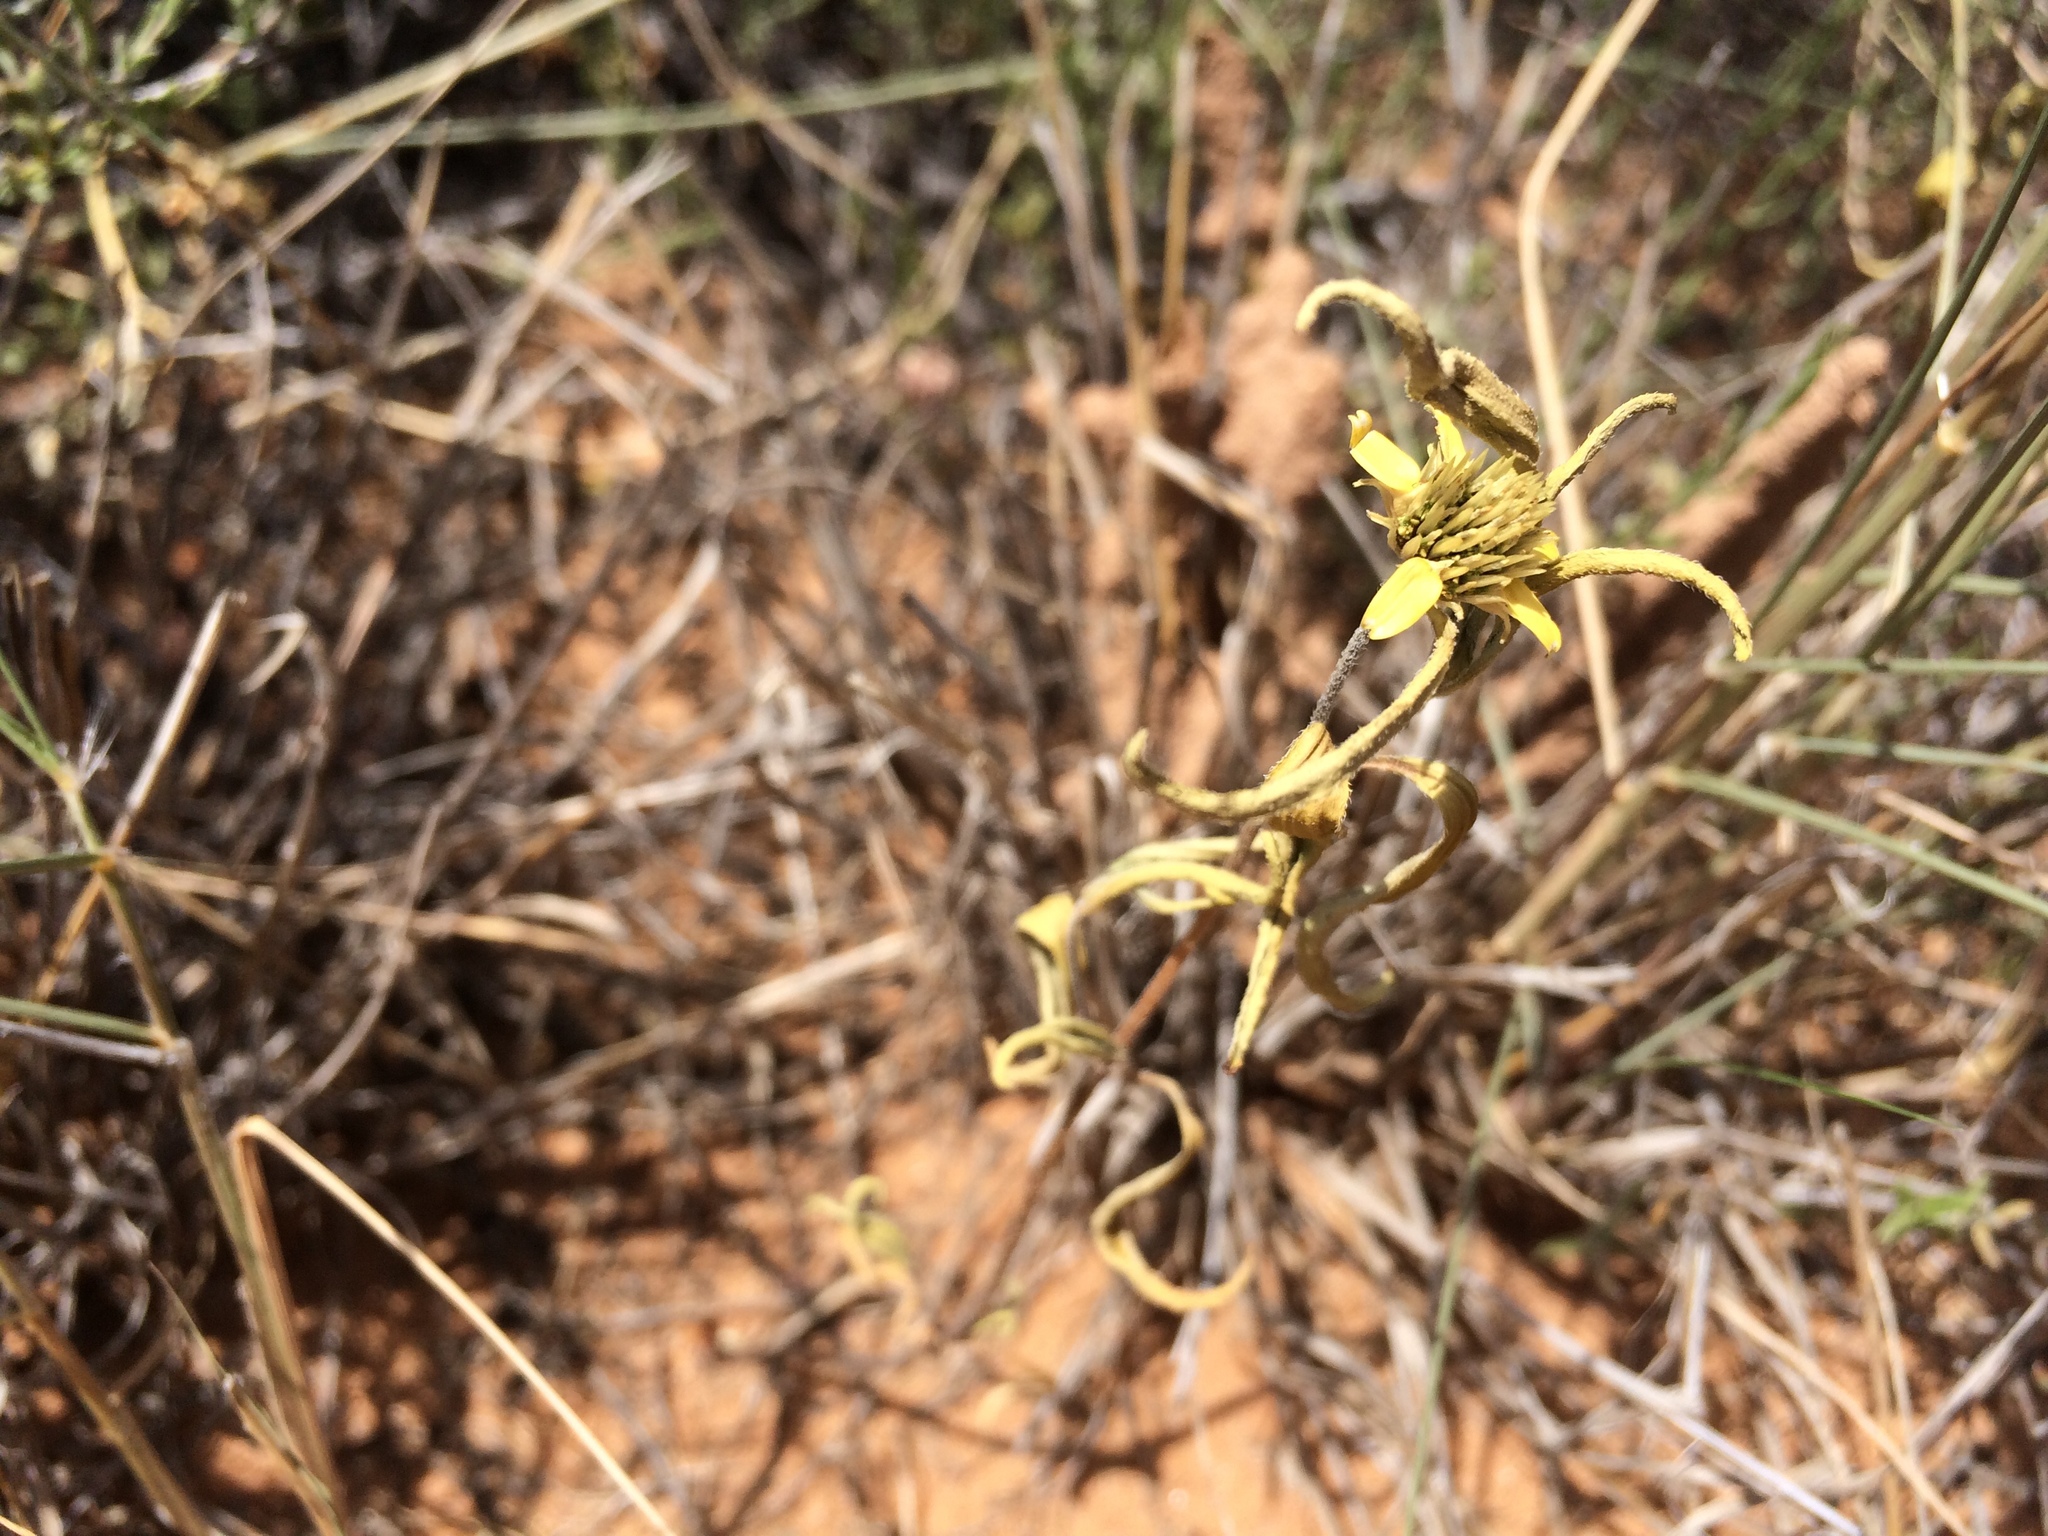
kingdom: Plantae
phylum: Tracheophyta
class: Magnoliopsida
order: Asterales
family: Asteraceae
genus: Sanvitalia
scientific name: Sanvitalia abertii
